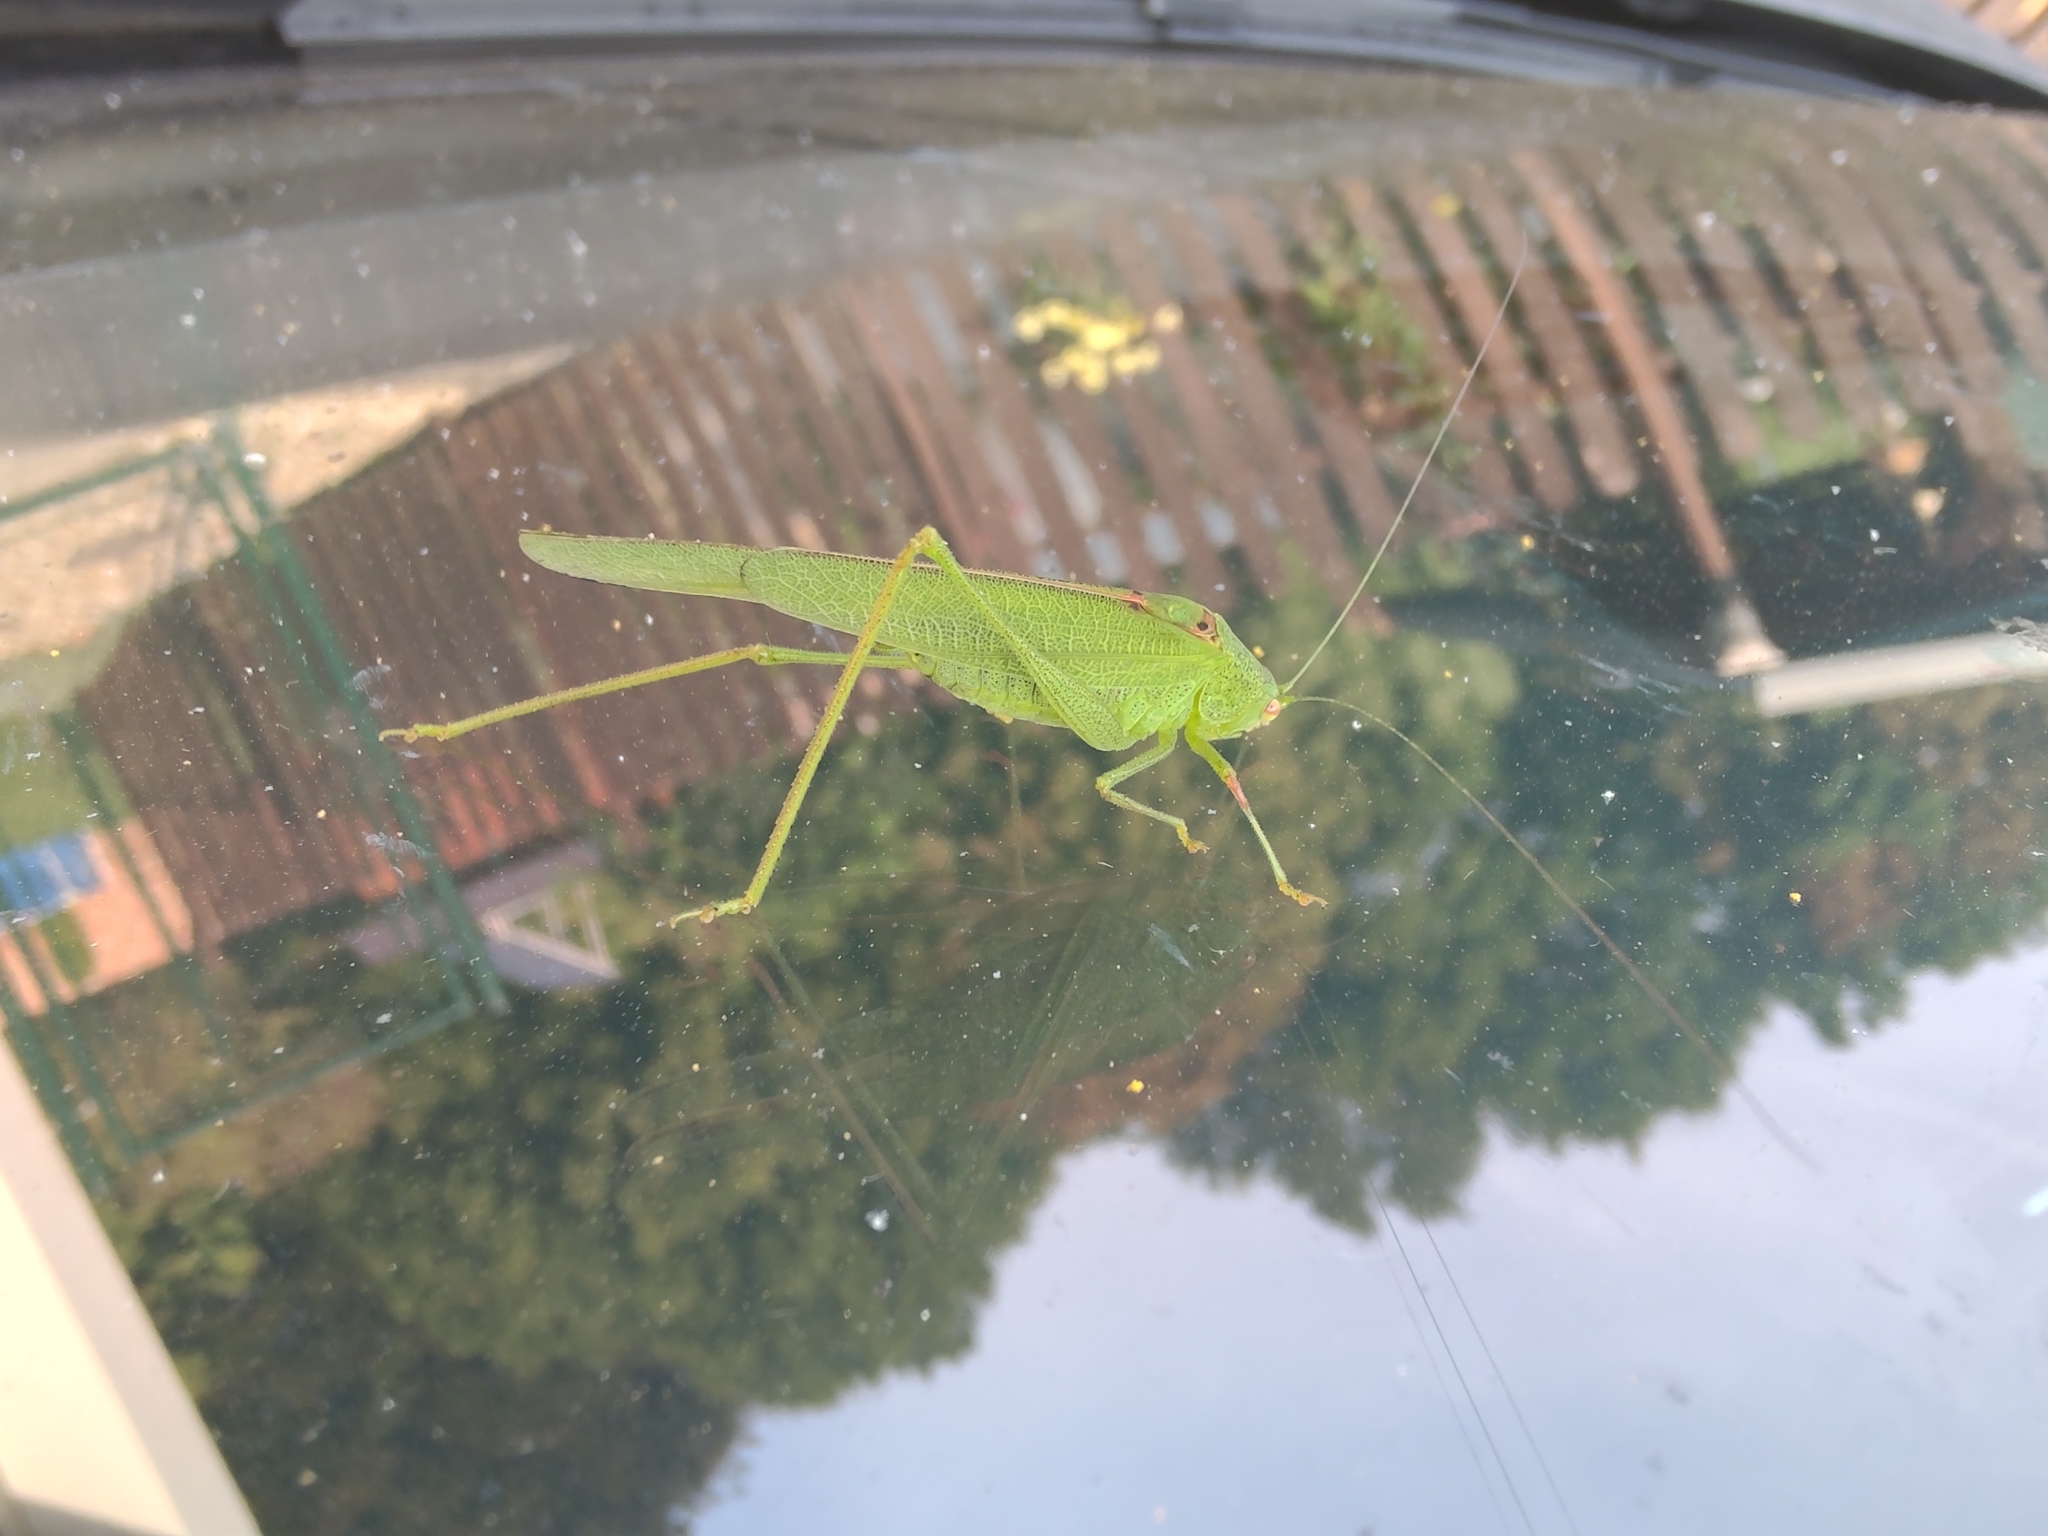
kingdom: Animalia
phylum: Arthropoda
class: Insecta
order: Orthoptera
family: Tettigoniidae
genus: Phaneroptera
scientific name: Phaneroptera nana
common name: Southern sickle bush-cricket
